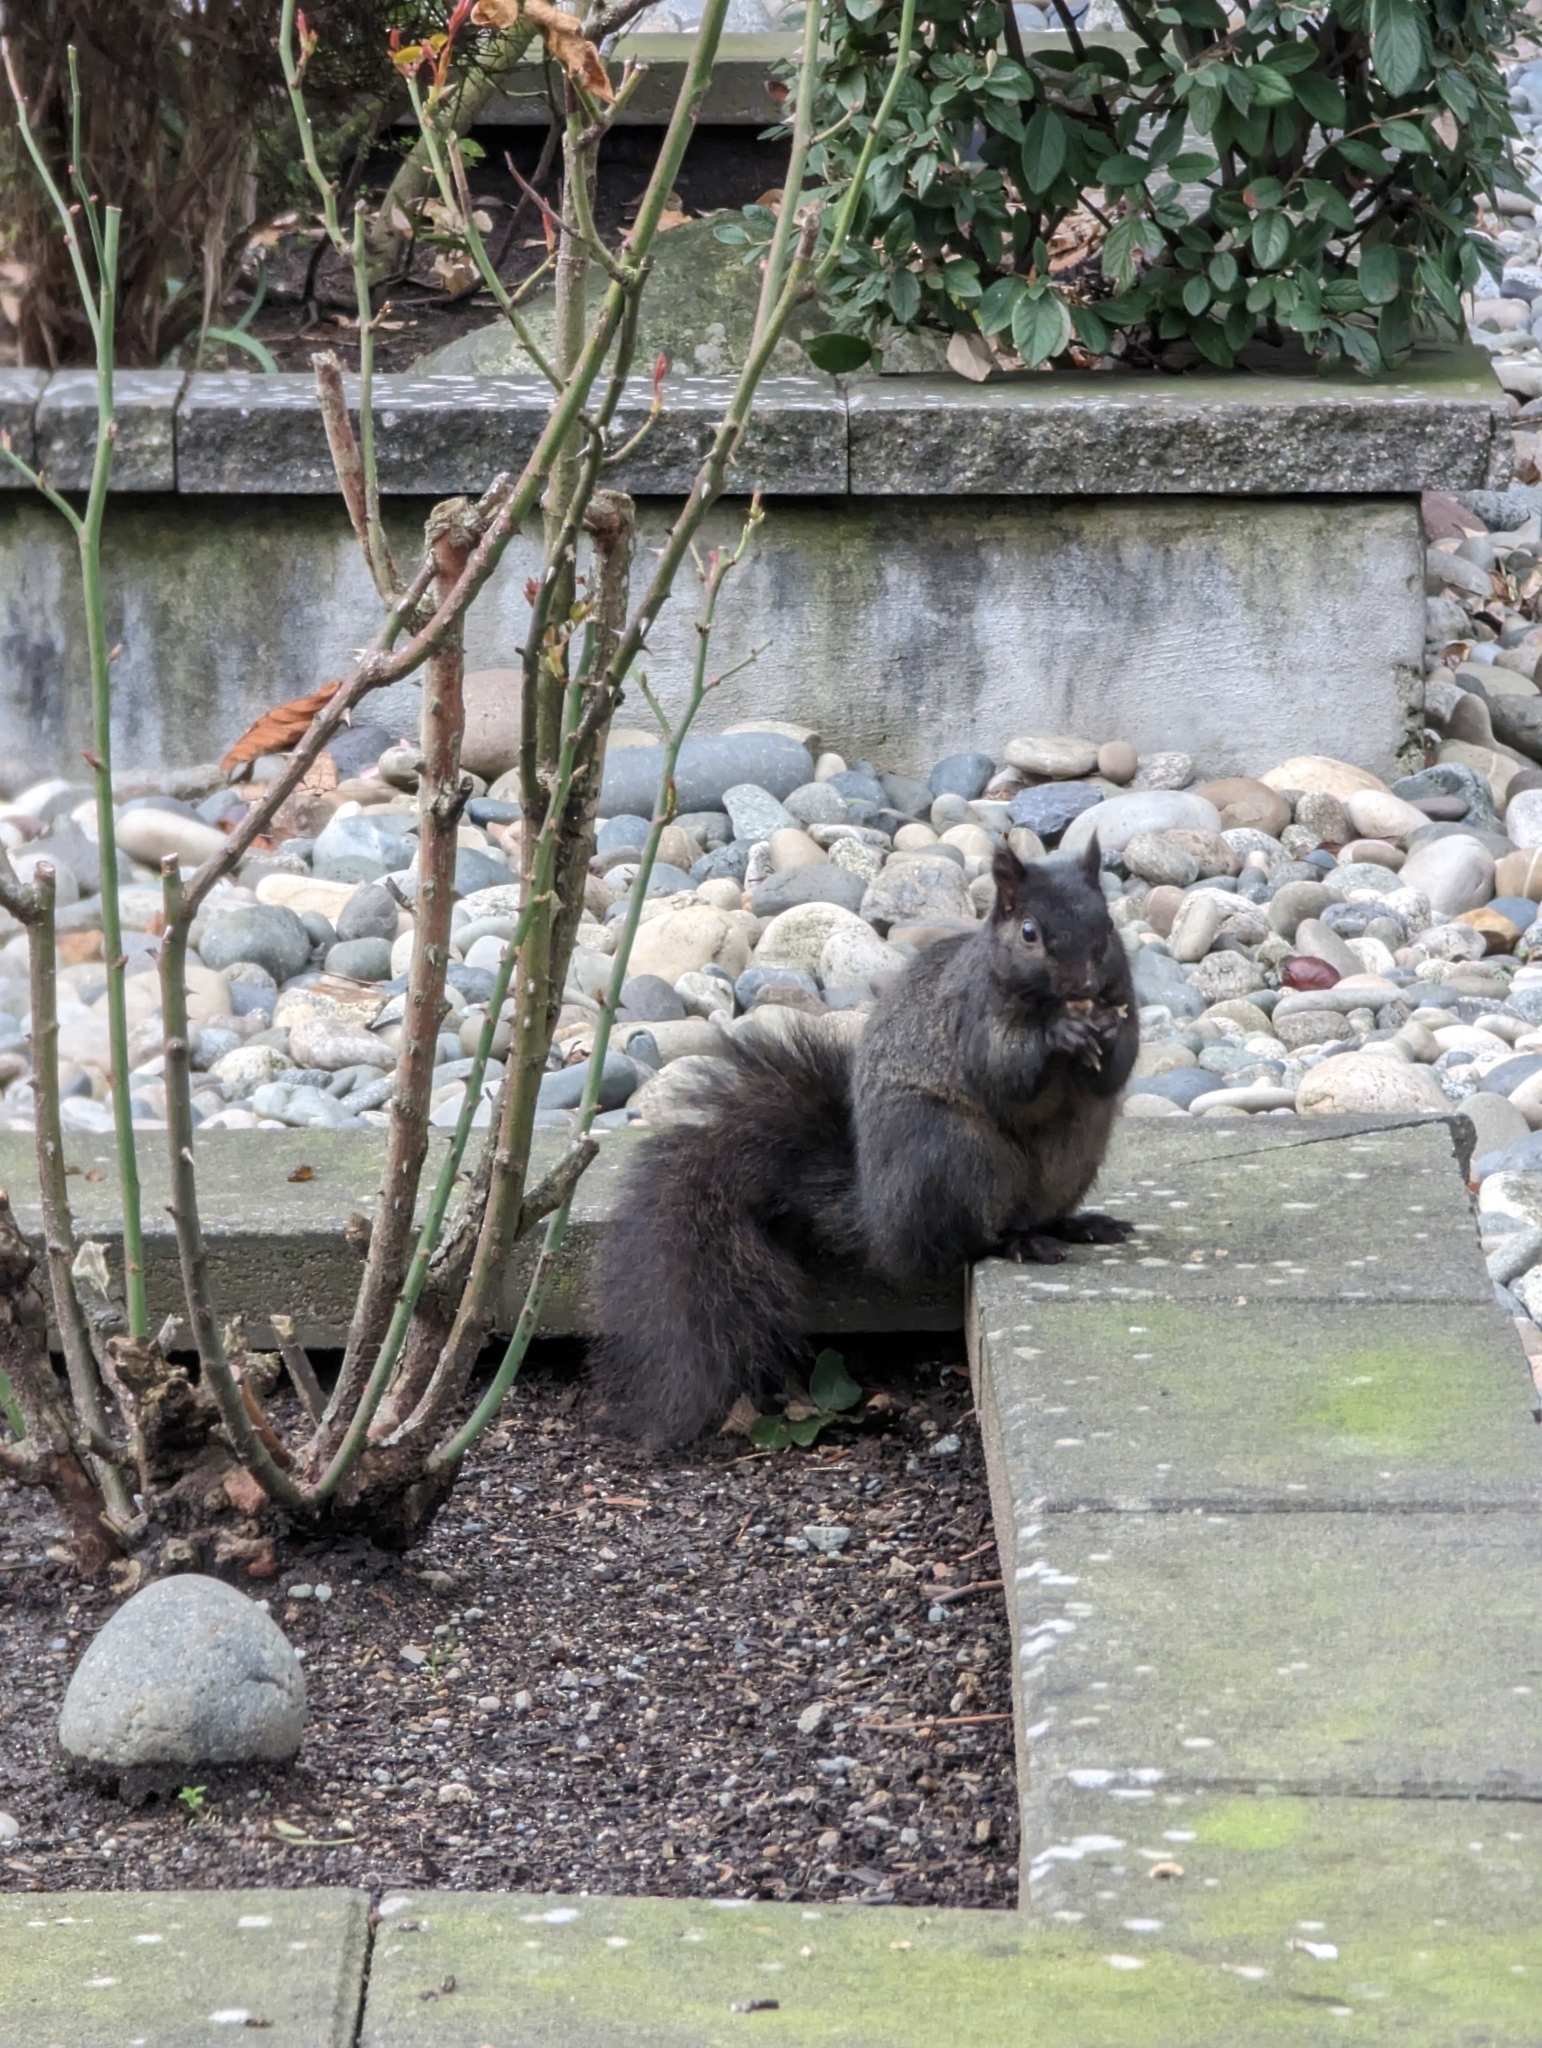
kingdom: Animalia
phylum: Chordata
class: Mammalia
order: Rodentia
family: Sciuridae
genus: Sciurus
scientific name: Sciurus carolinensis
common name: Eastern gray squirrel
